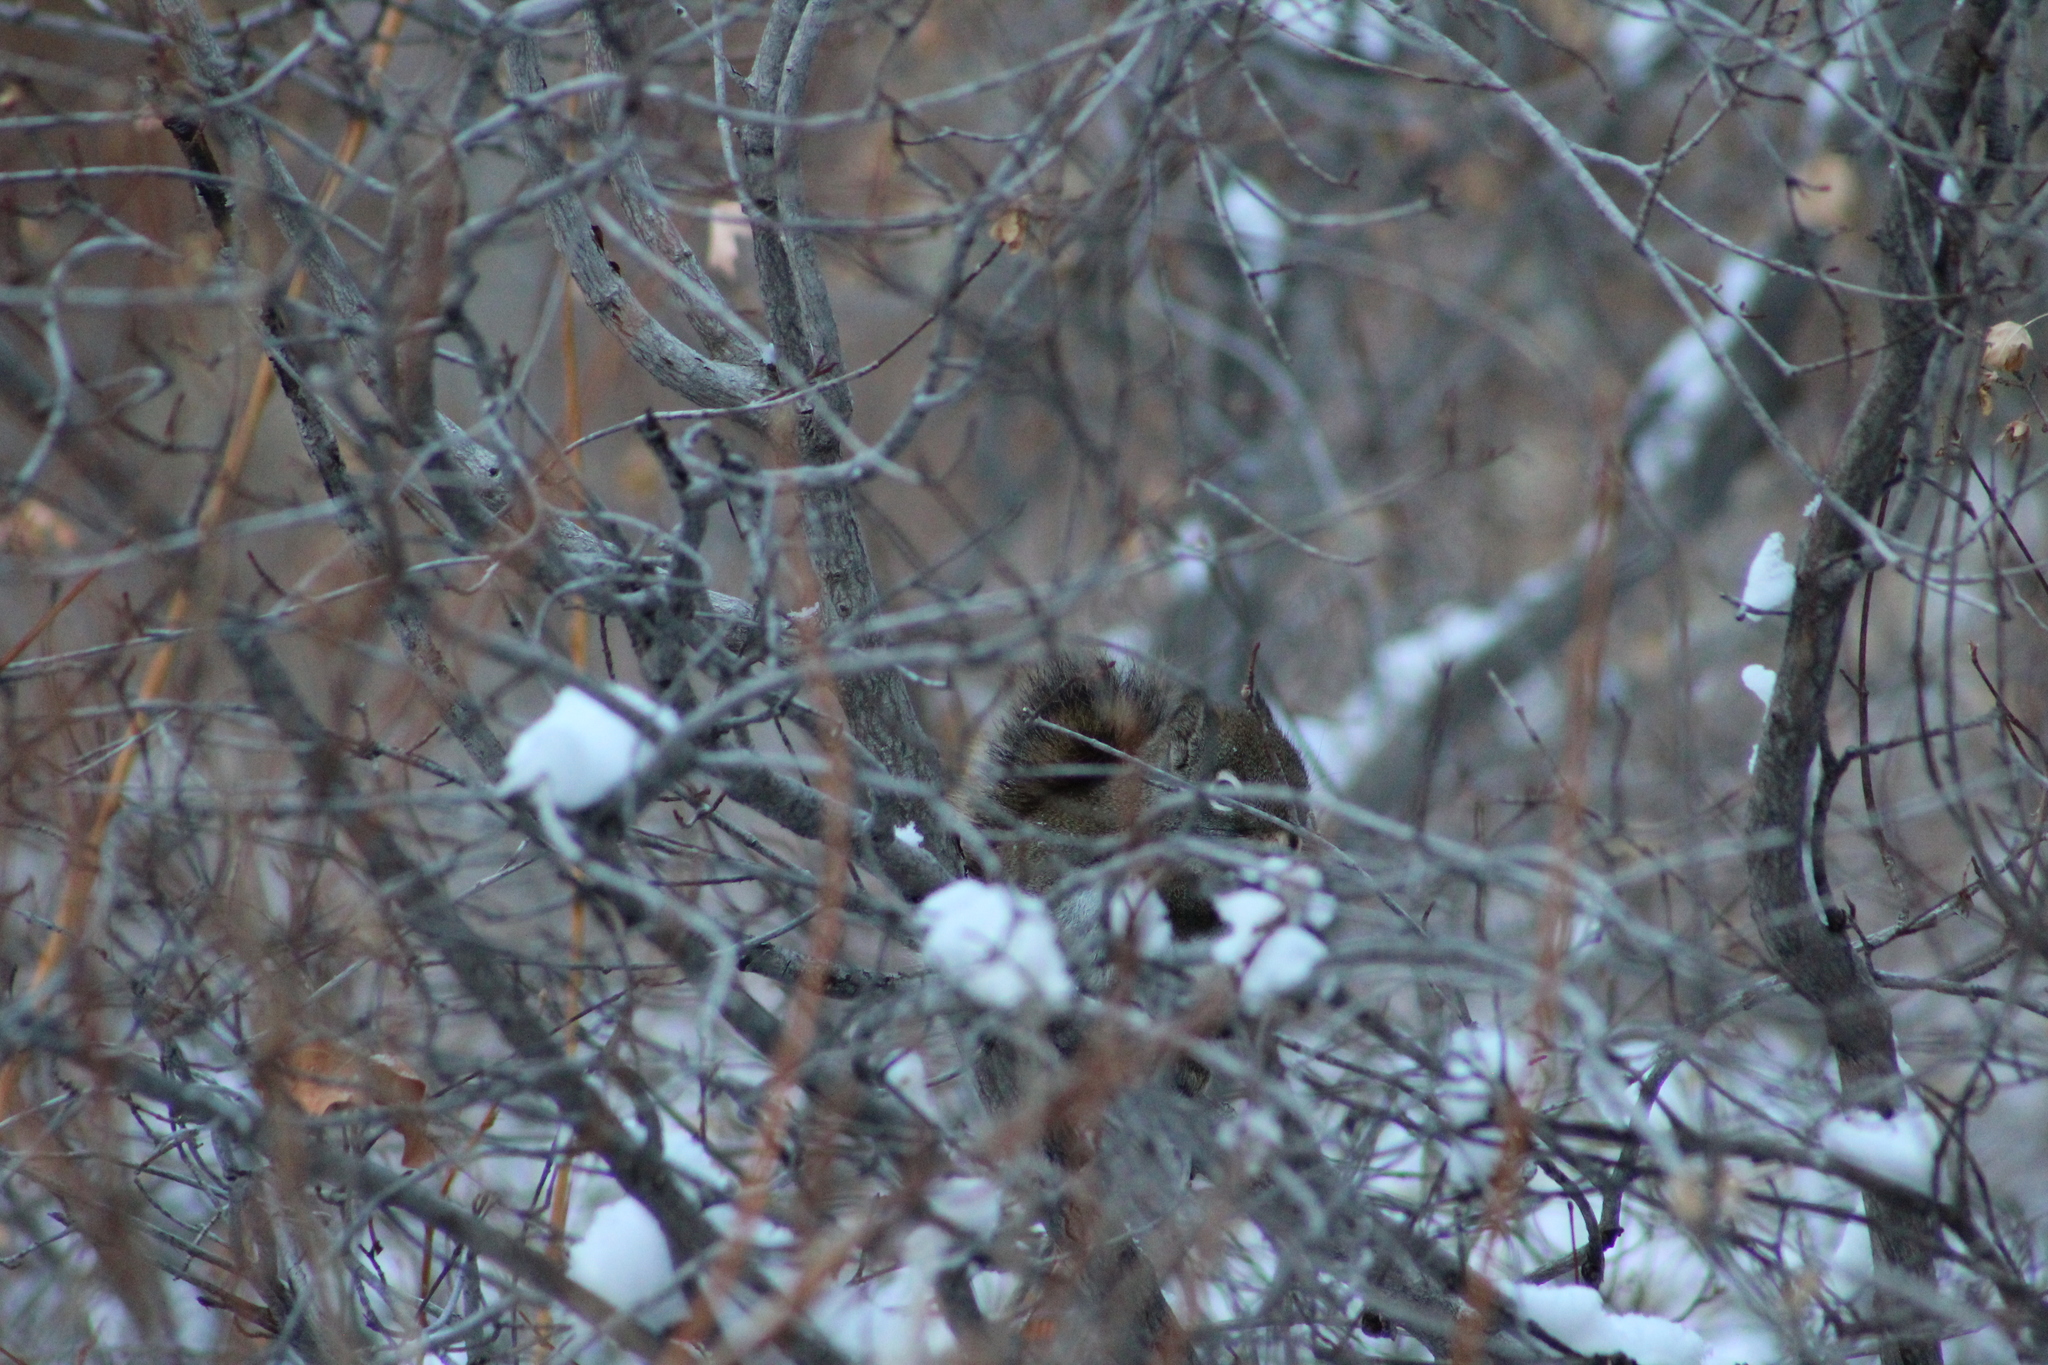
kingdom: Animalia
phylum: Chordata
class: Mammalia
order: Rodentia
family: Sciuridae
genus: Tamiasciurus
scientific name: Tamiasciurus hudsonicus
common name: Red squirrel
